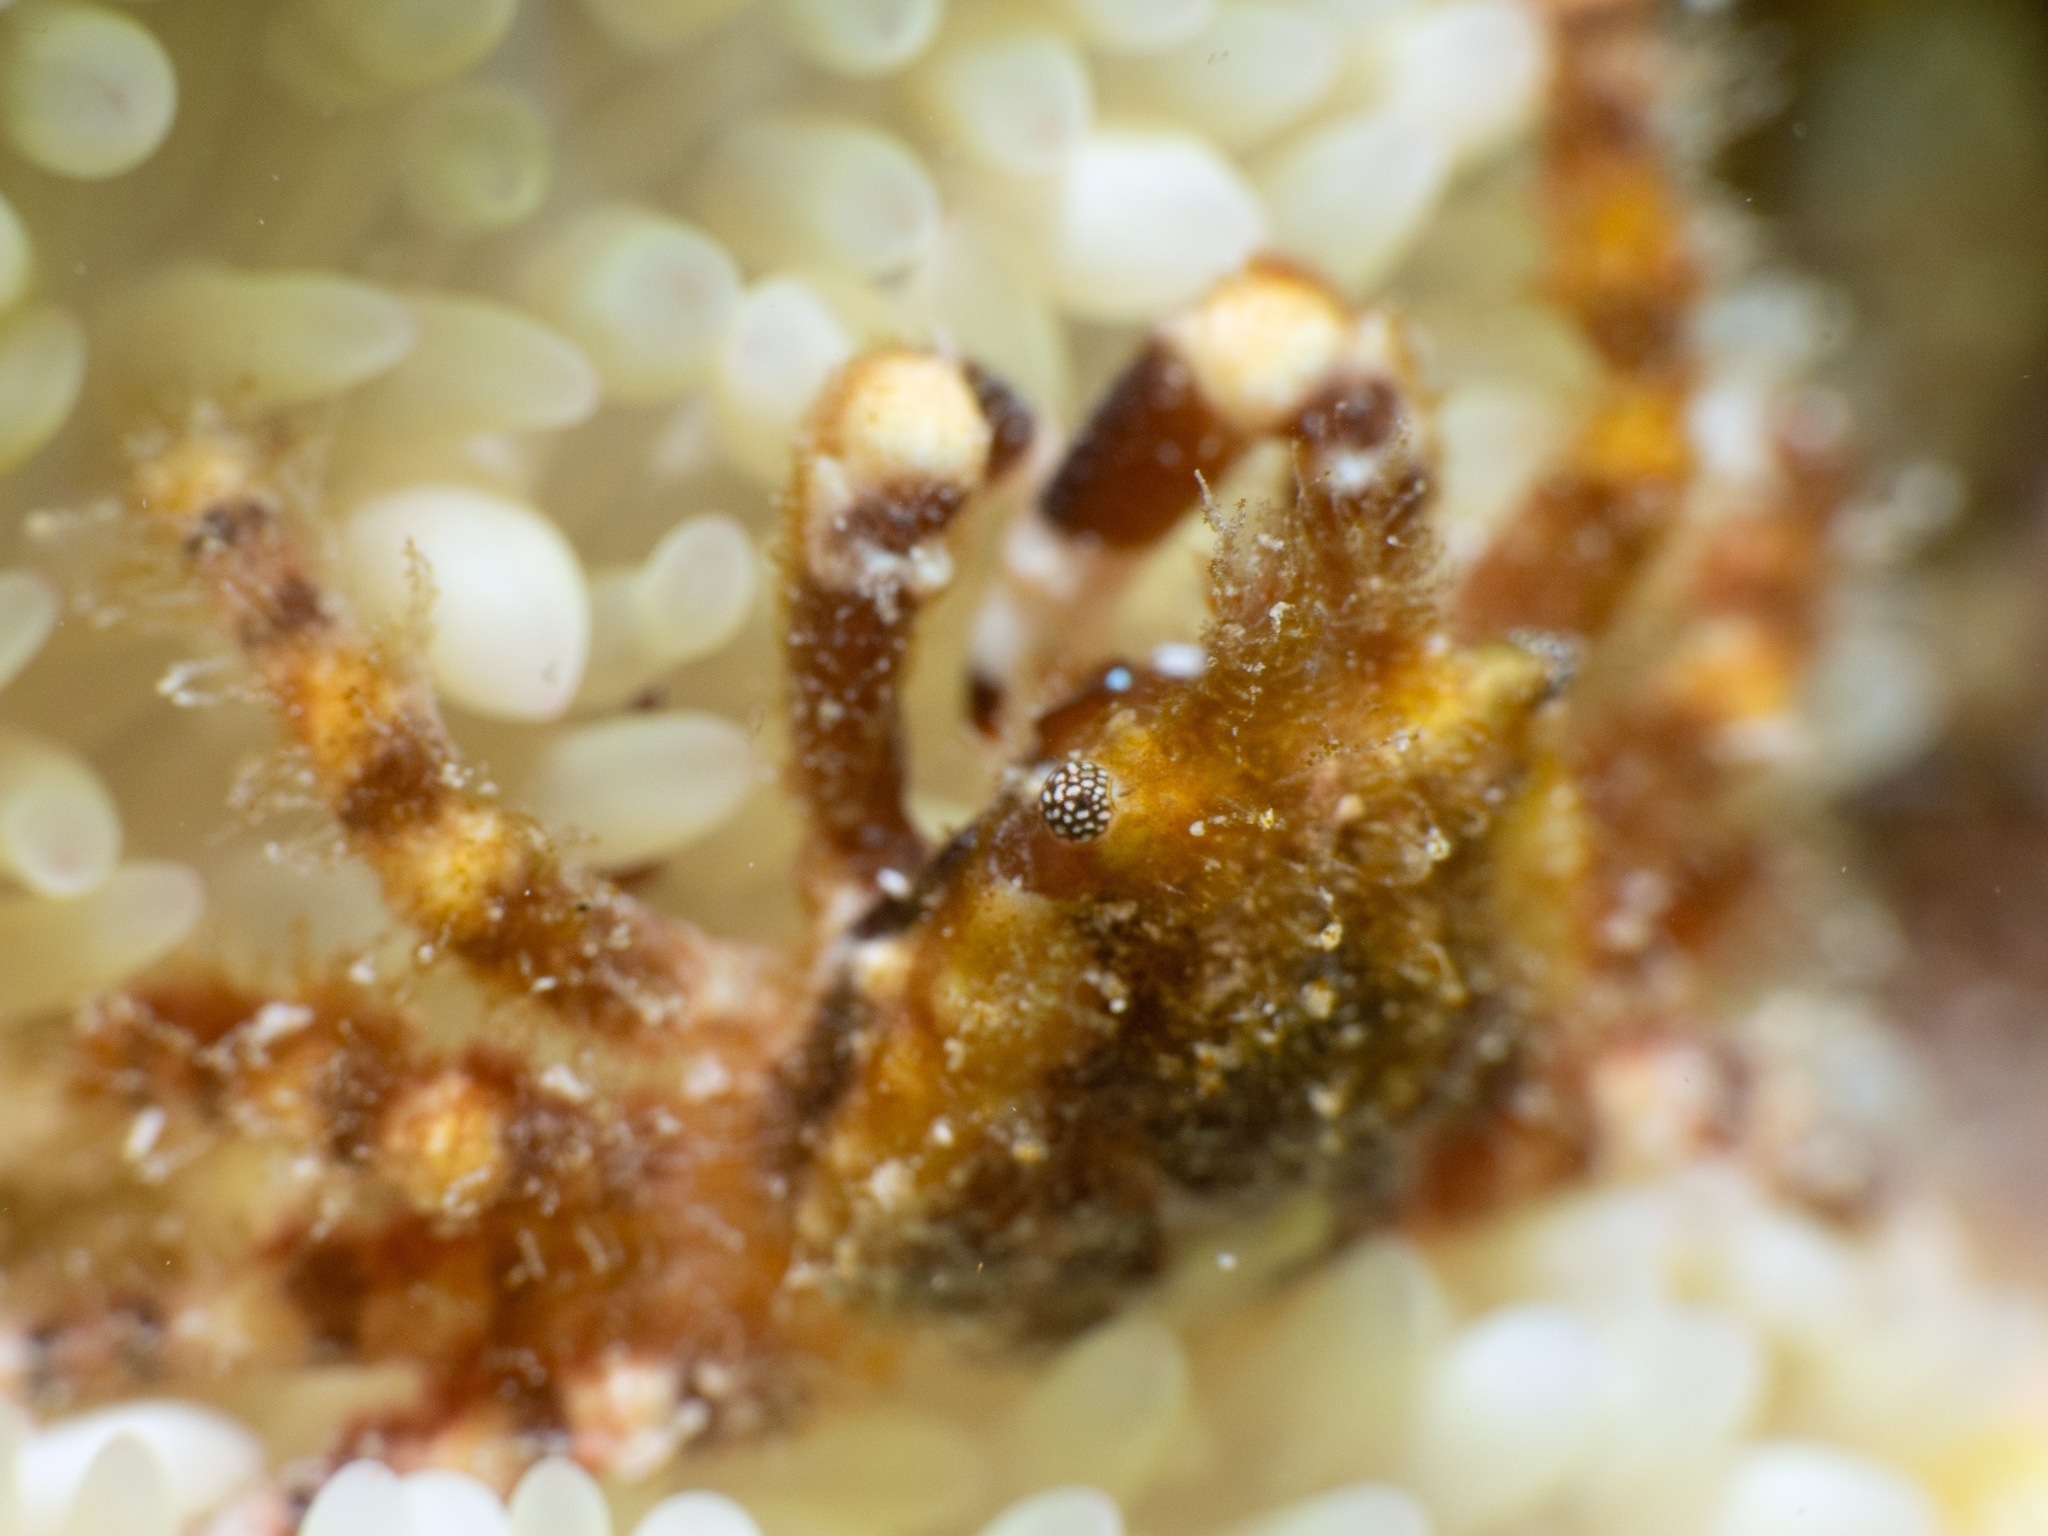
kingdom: Animalia
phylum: Arthropoda
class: Malacostraca
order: Decapoda
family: Mithracidae
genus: Mithraculus
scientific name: Mithraculus cinctimanus
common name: Banded clinging crab
